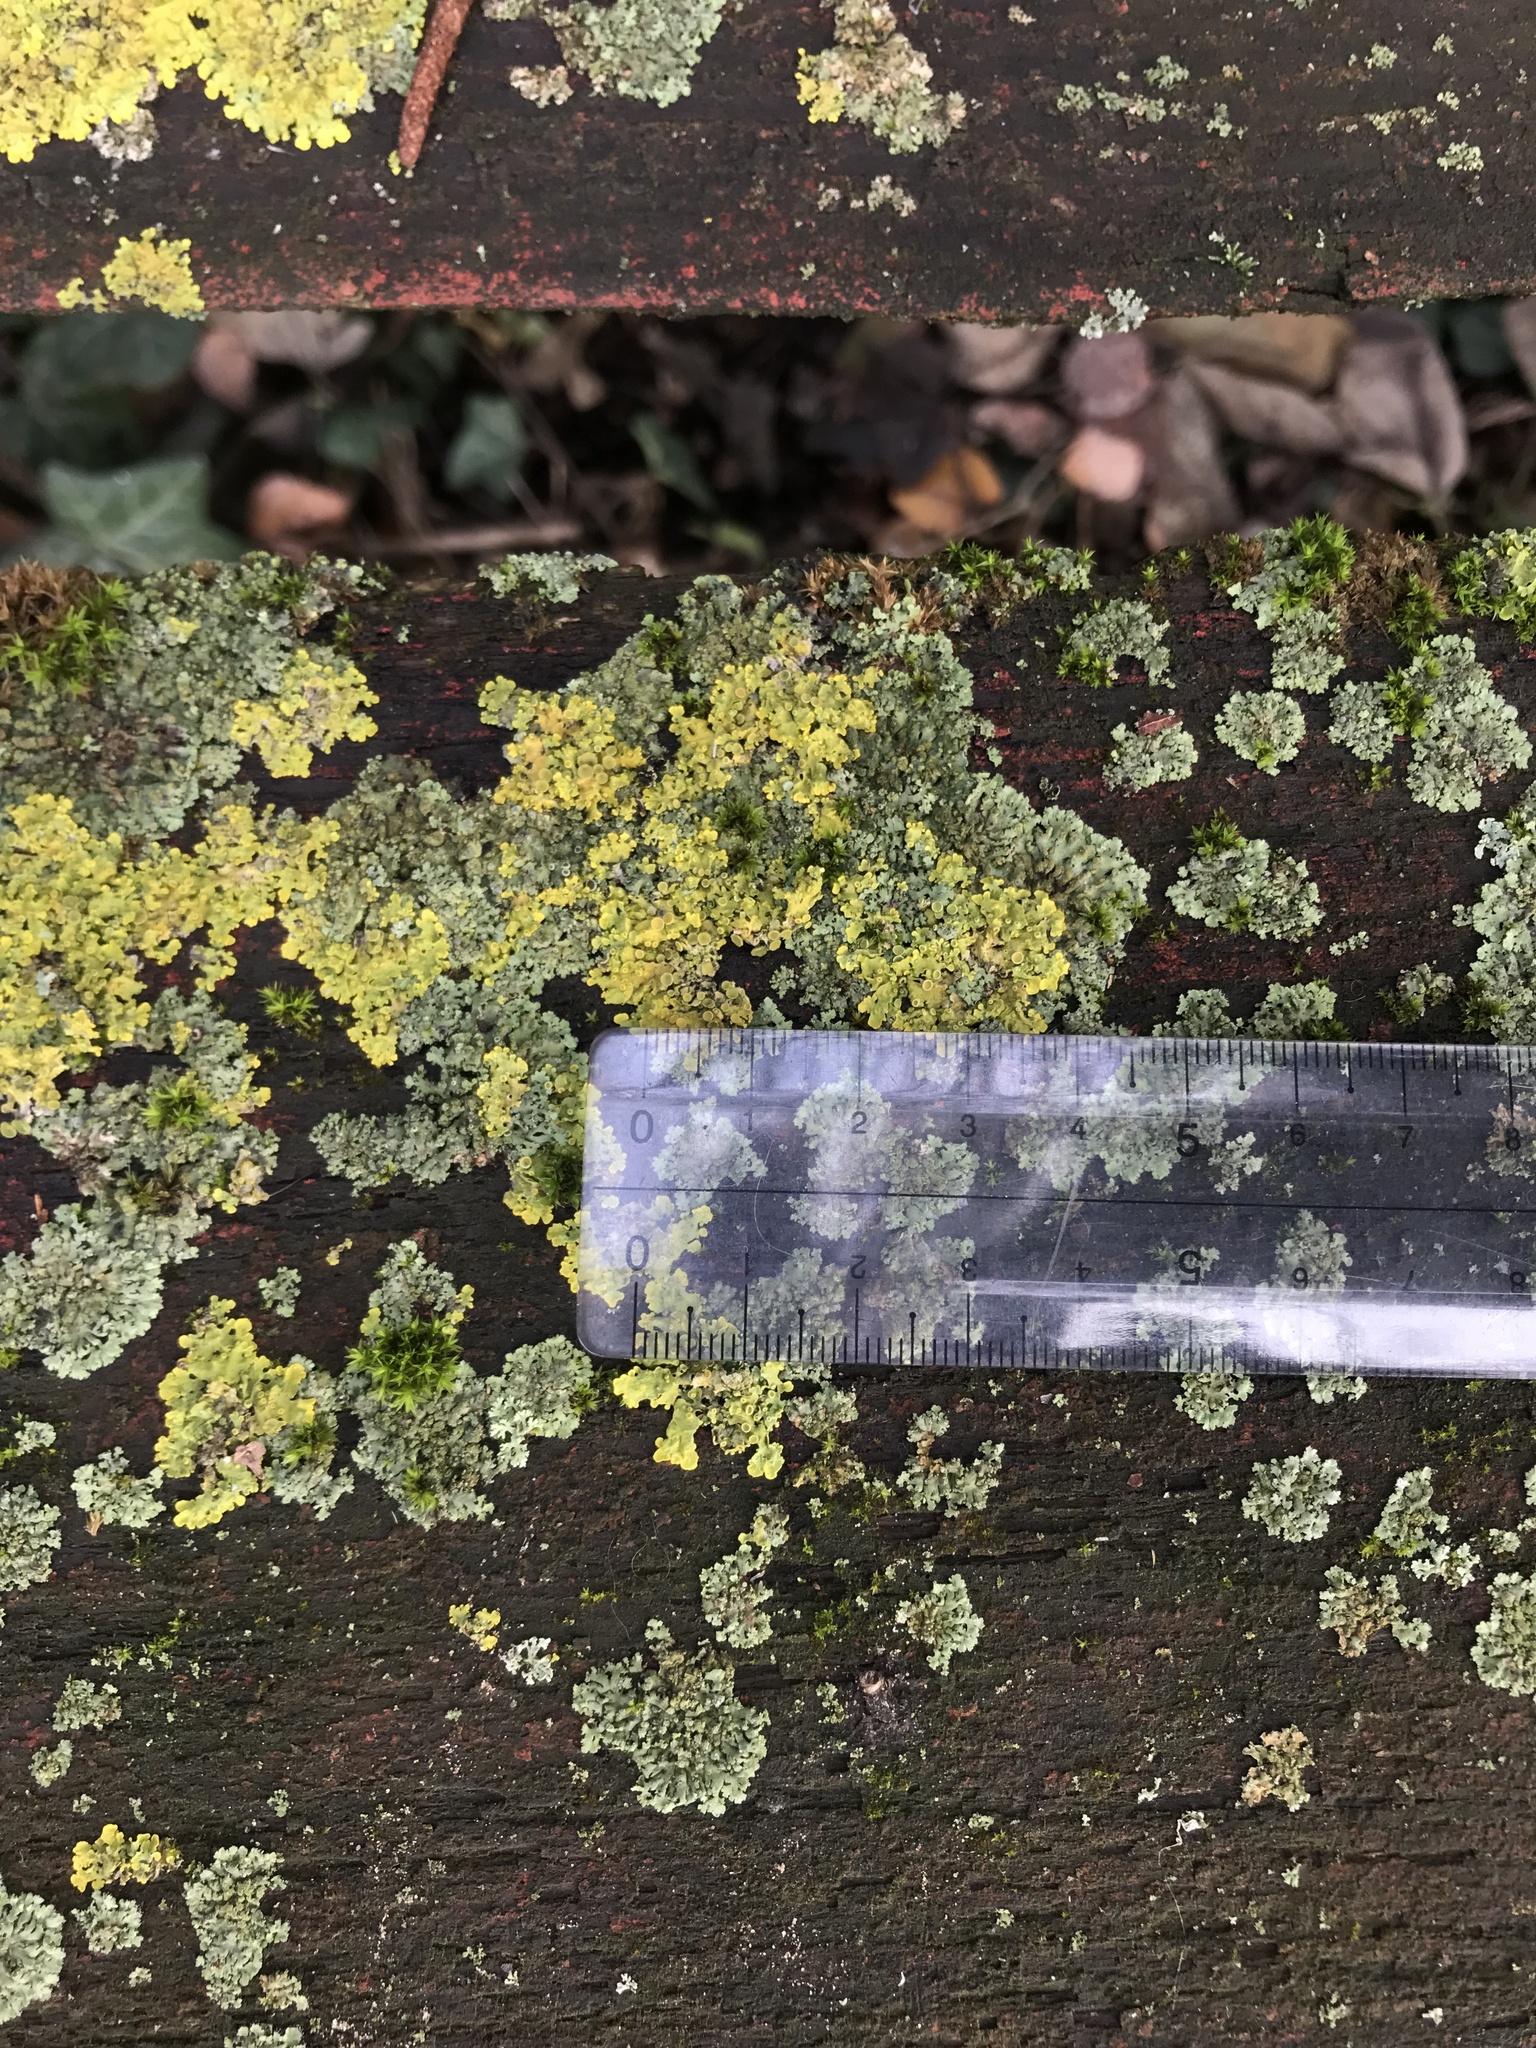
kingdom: Fungi
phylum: Ascomycota
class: Lecanoromycetes
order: Teloschistales
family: Teloschistaceae
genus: Xanthoria
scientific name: Xanthoria parietina
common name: Common orange lichen
